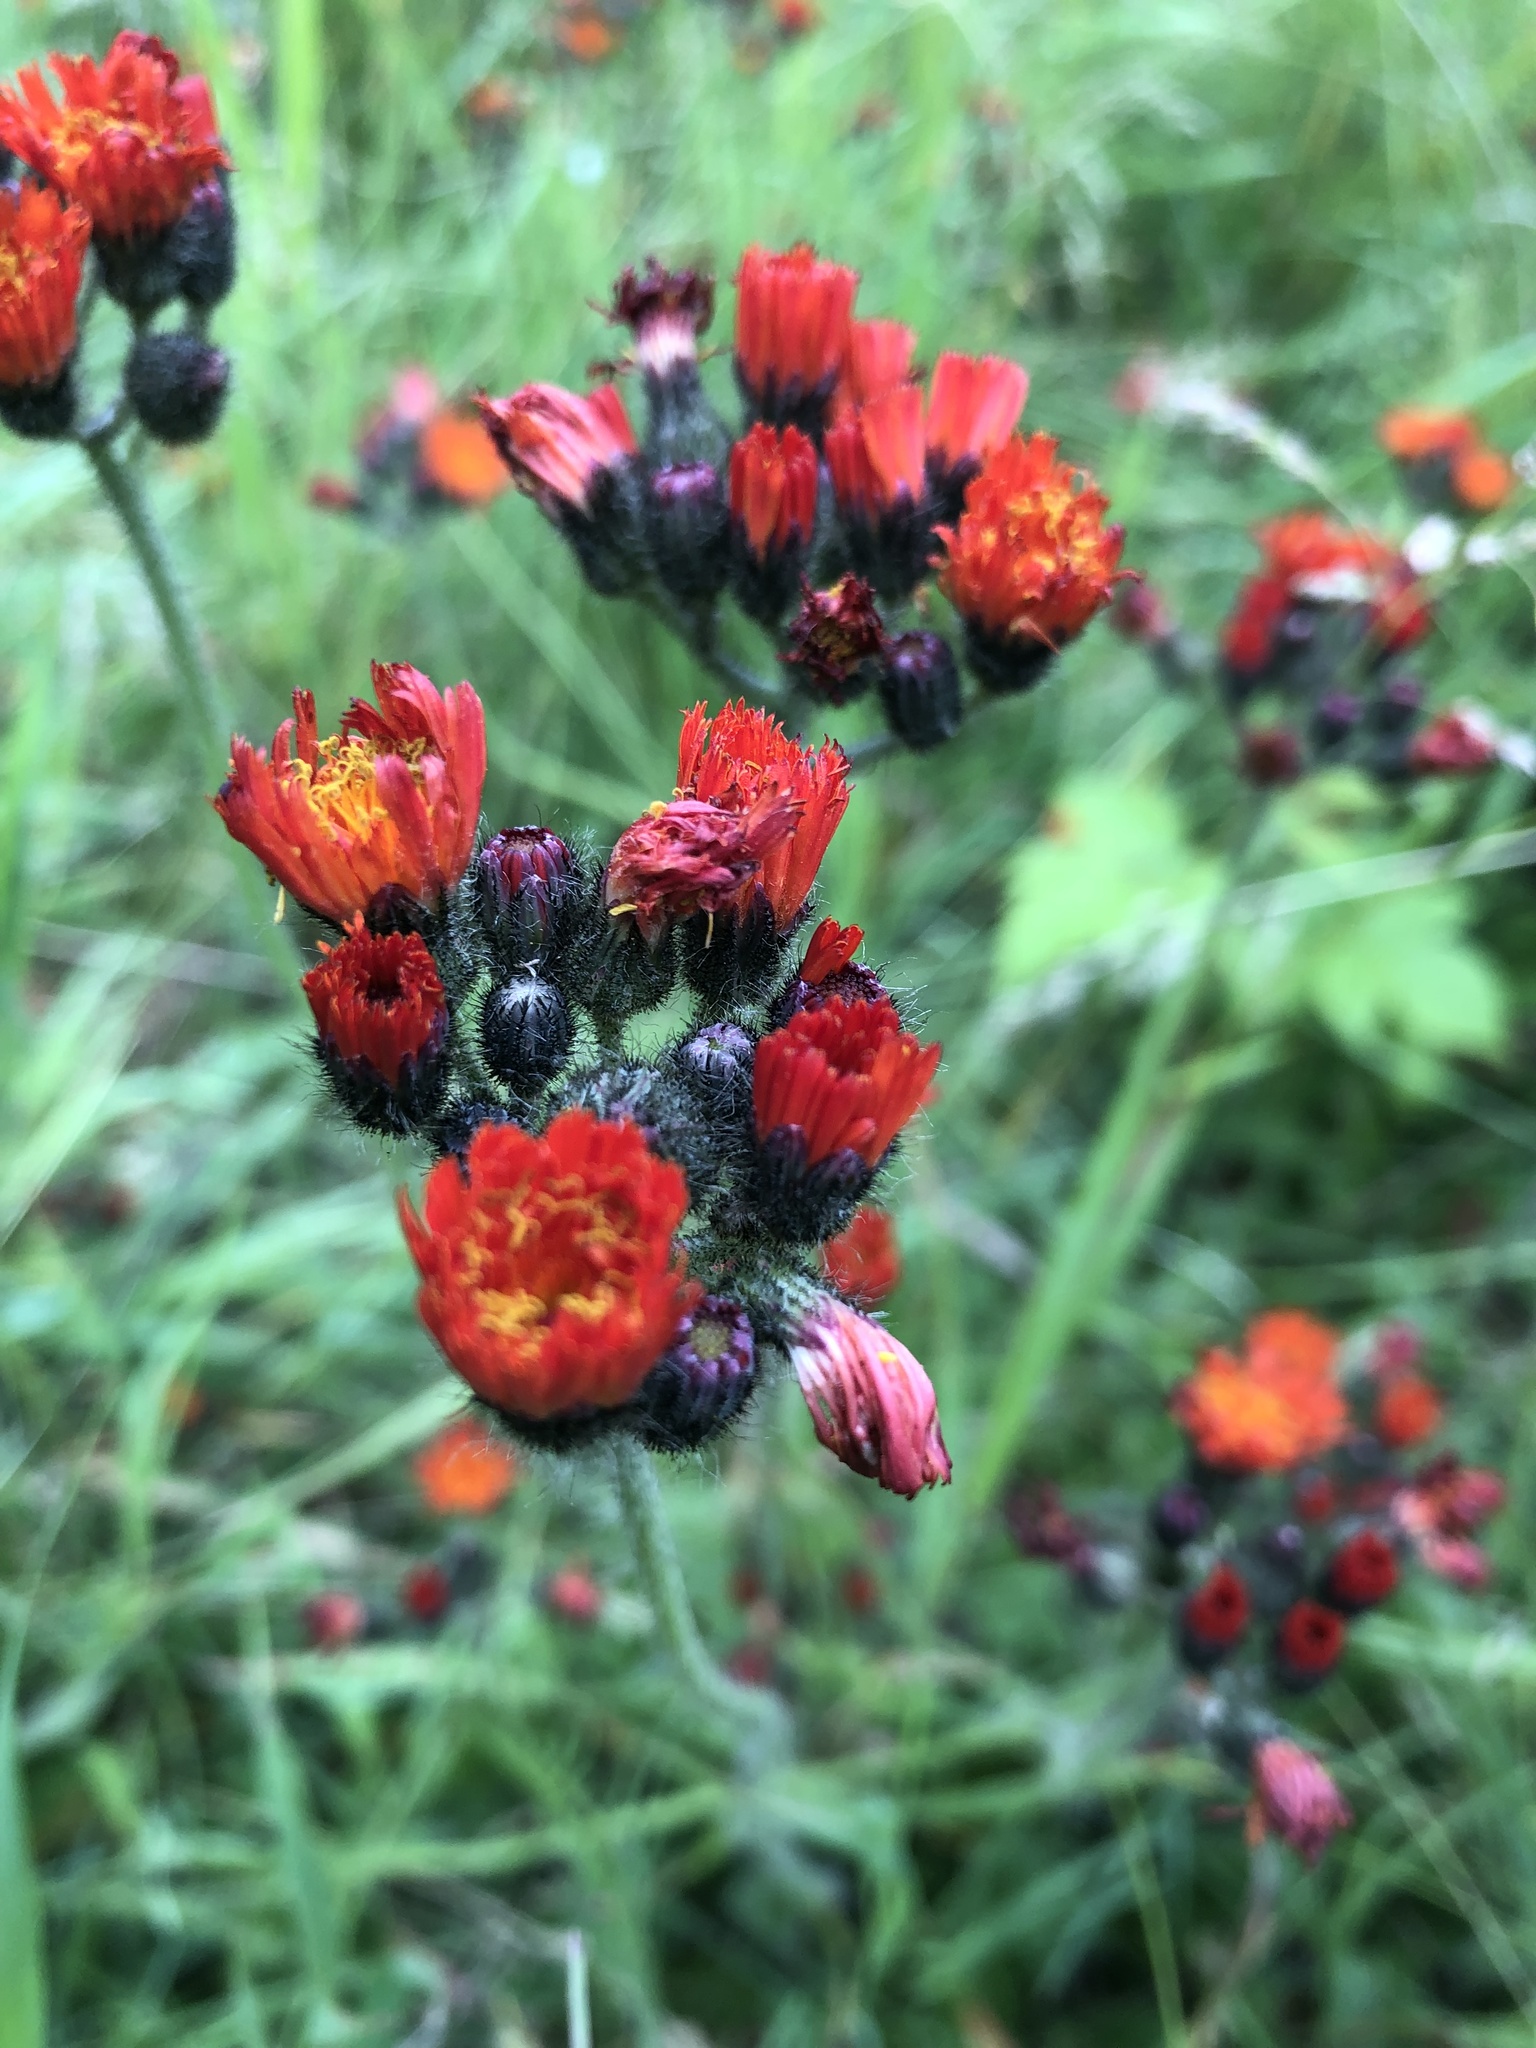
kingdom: Plantae
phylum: Tracheophyta
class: Magnoliopsida
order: Asterales
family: Asteraceae
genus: Pilosella
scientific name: Pilosella aurantiaca
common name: Fox-and-cubs
